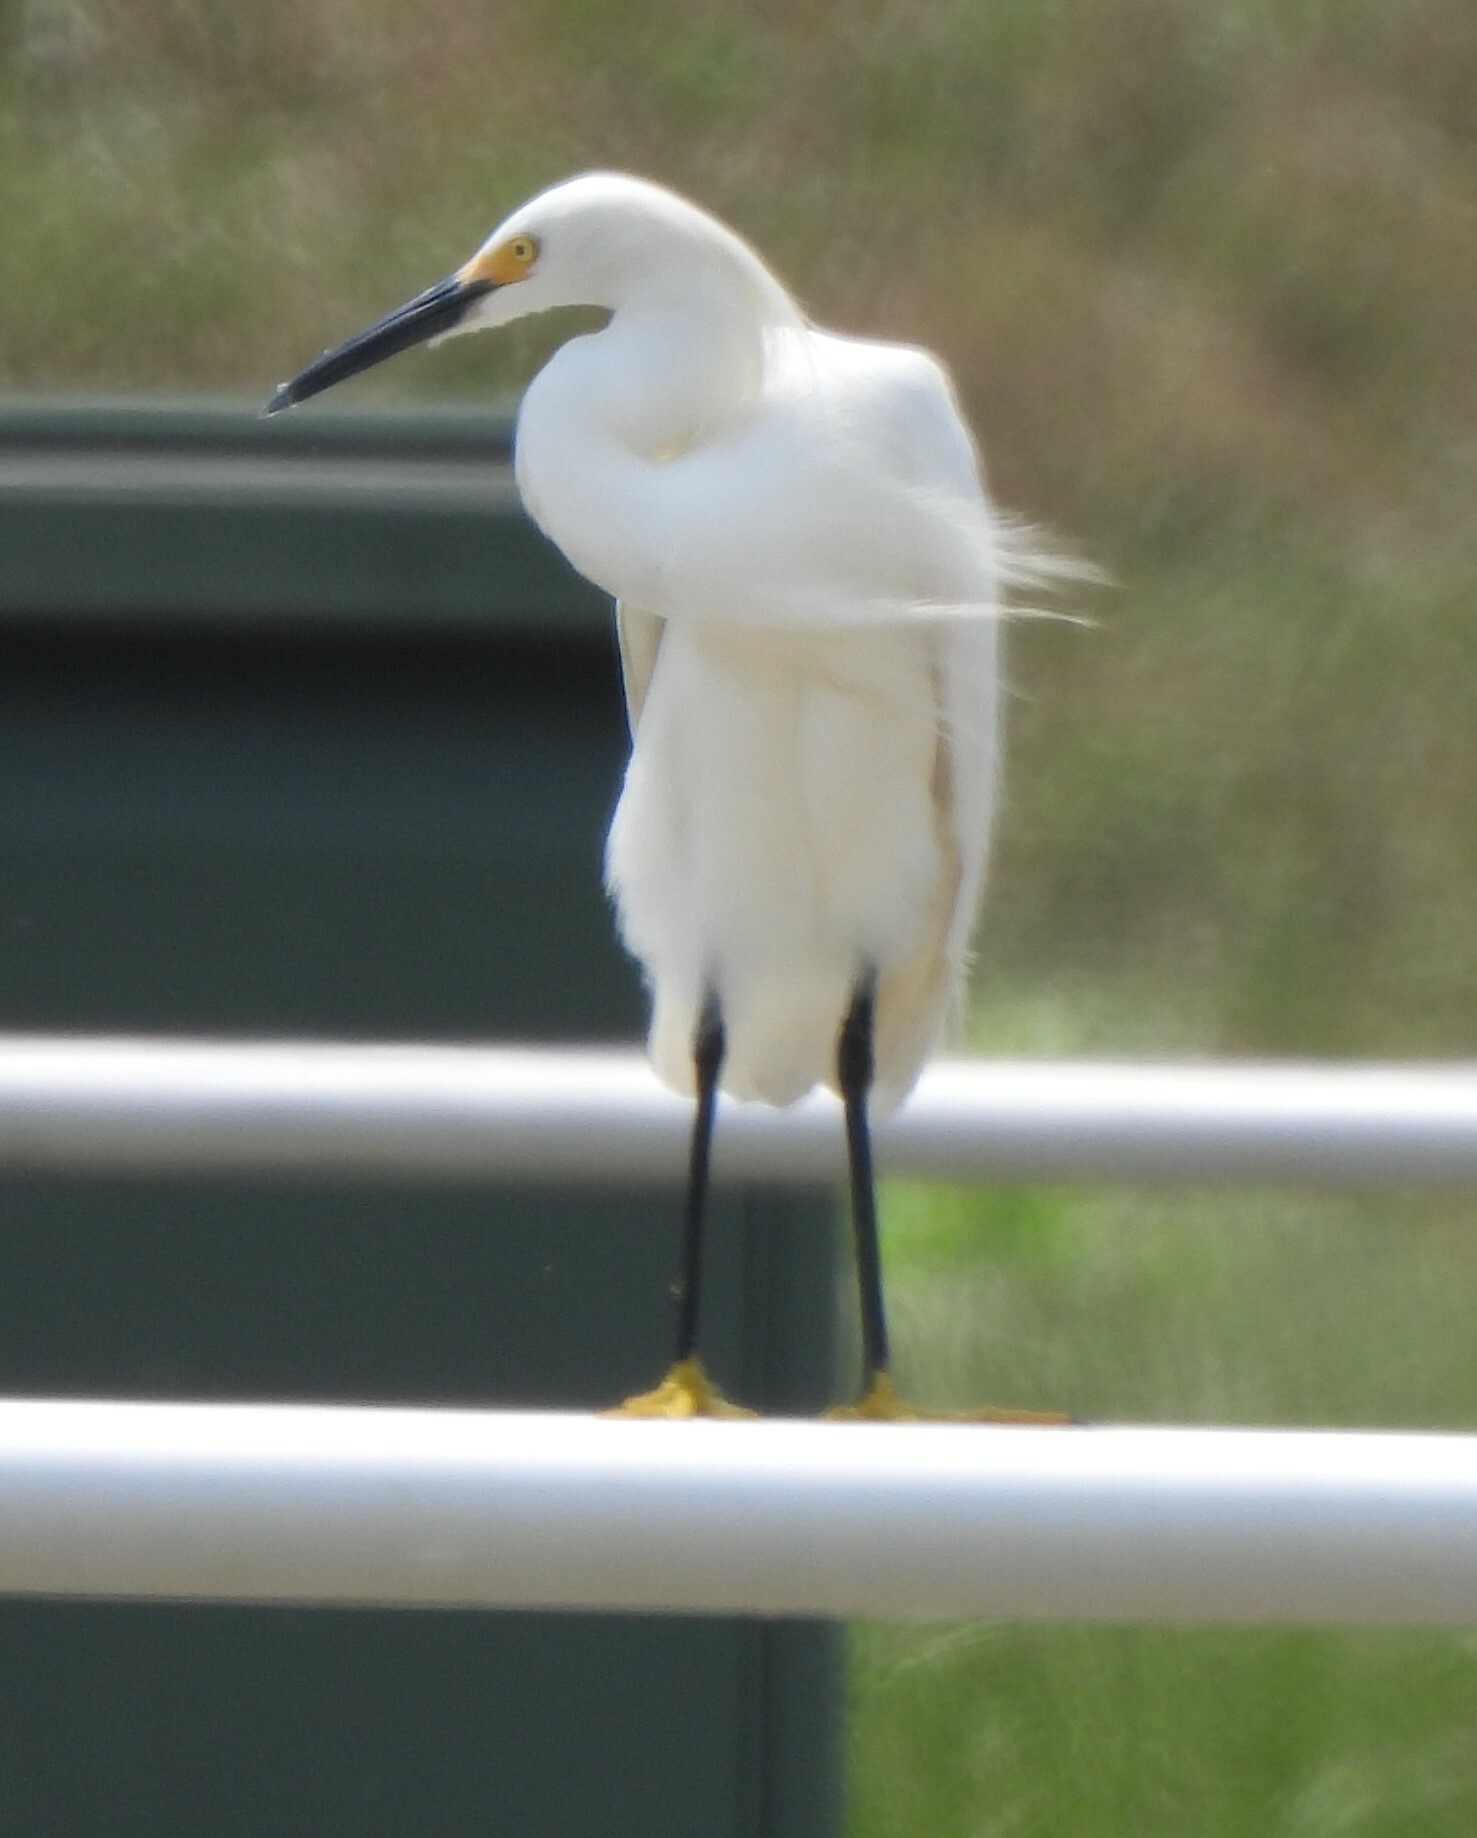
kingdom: Animalia
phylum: Chordata
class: Aves
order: Pelecaniformes
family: Ardeidae
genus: Egretta
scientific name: Egretta thula
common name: Snowy egret
